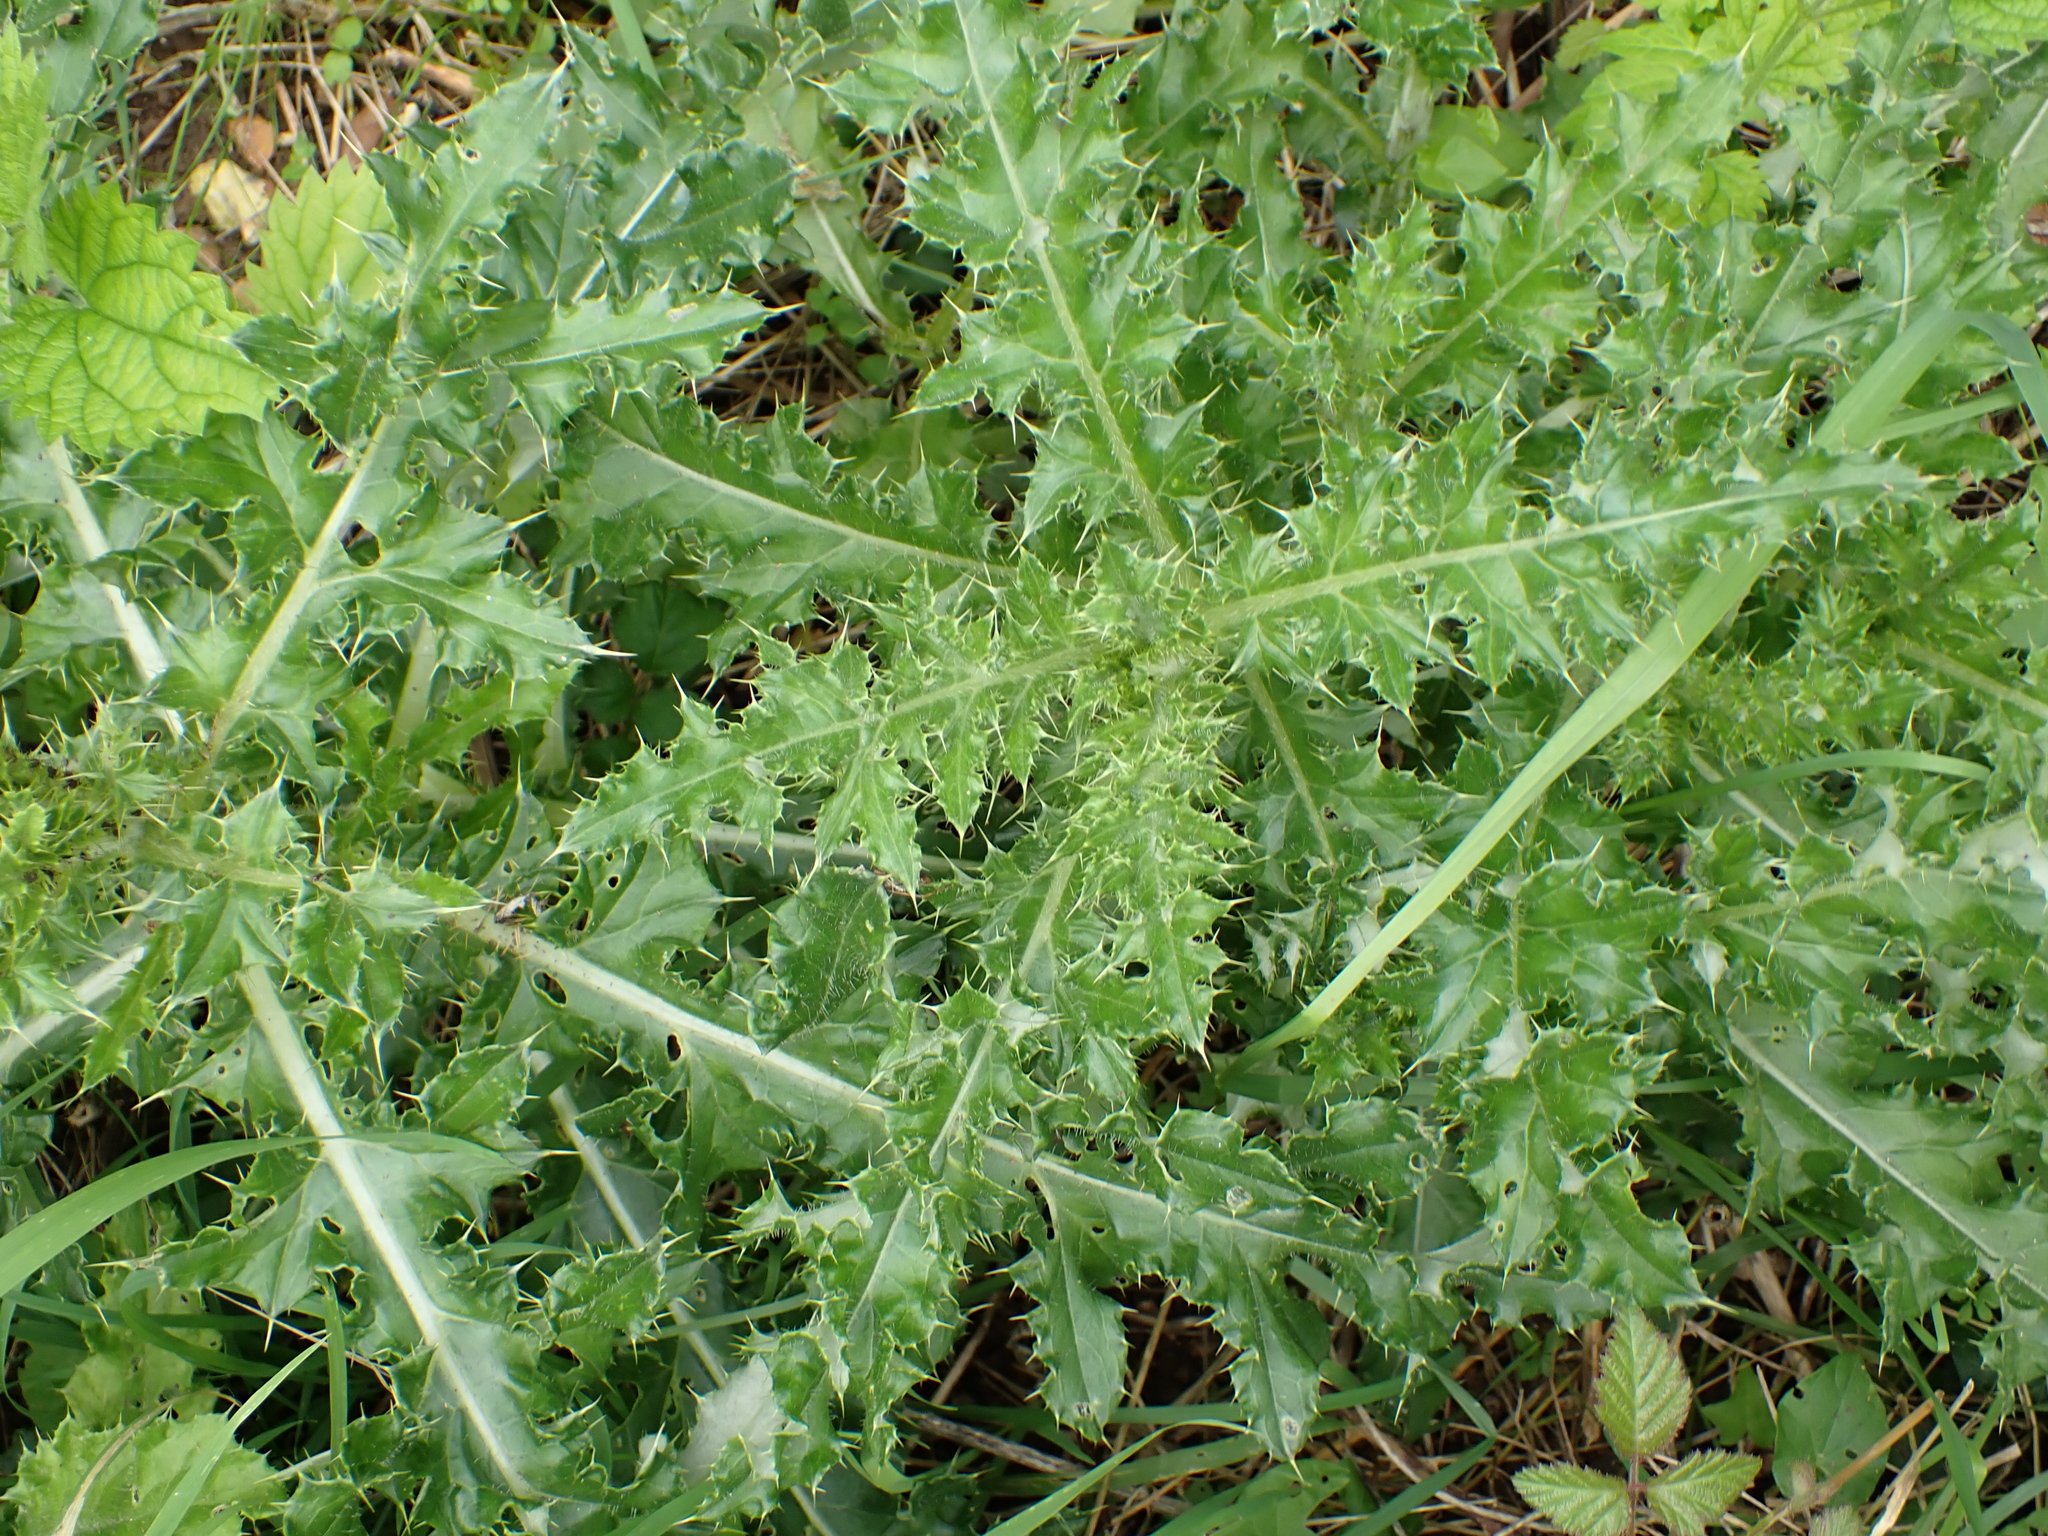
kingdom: Plantae
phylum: Tracheophyta
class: Magnoliopsida
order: Asterales
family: Asteraceae
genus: Cirsium
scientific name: Cirsium arvense
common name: Creeping thistle
